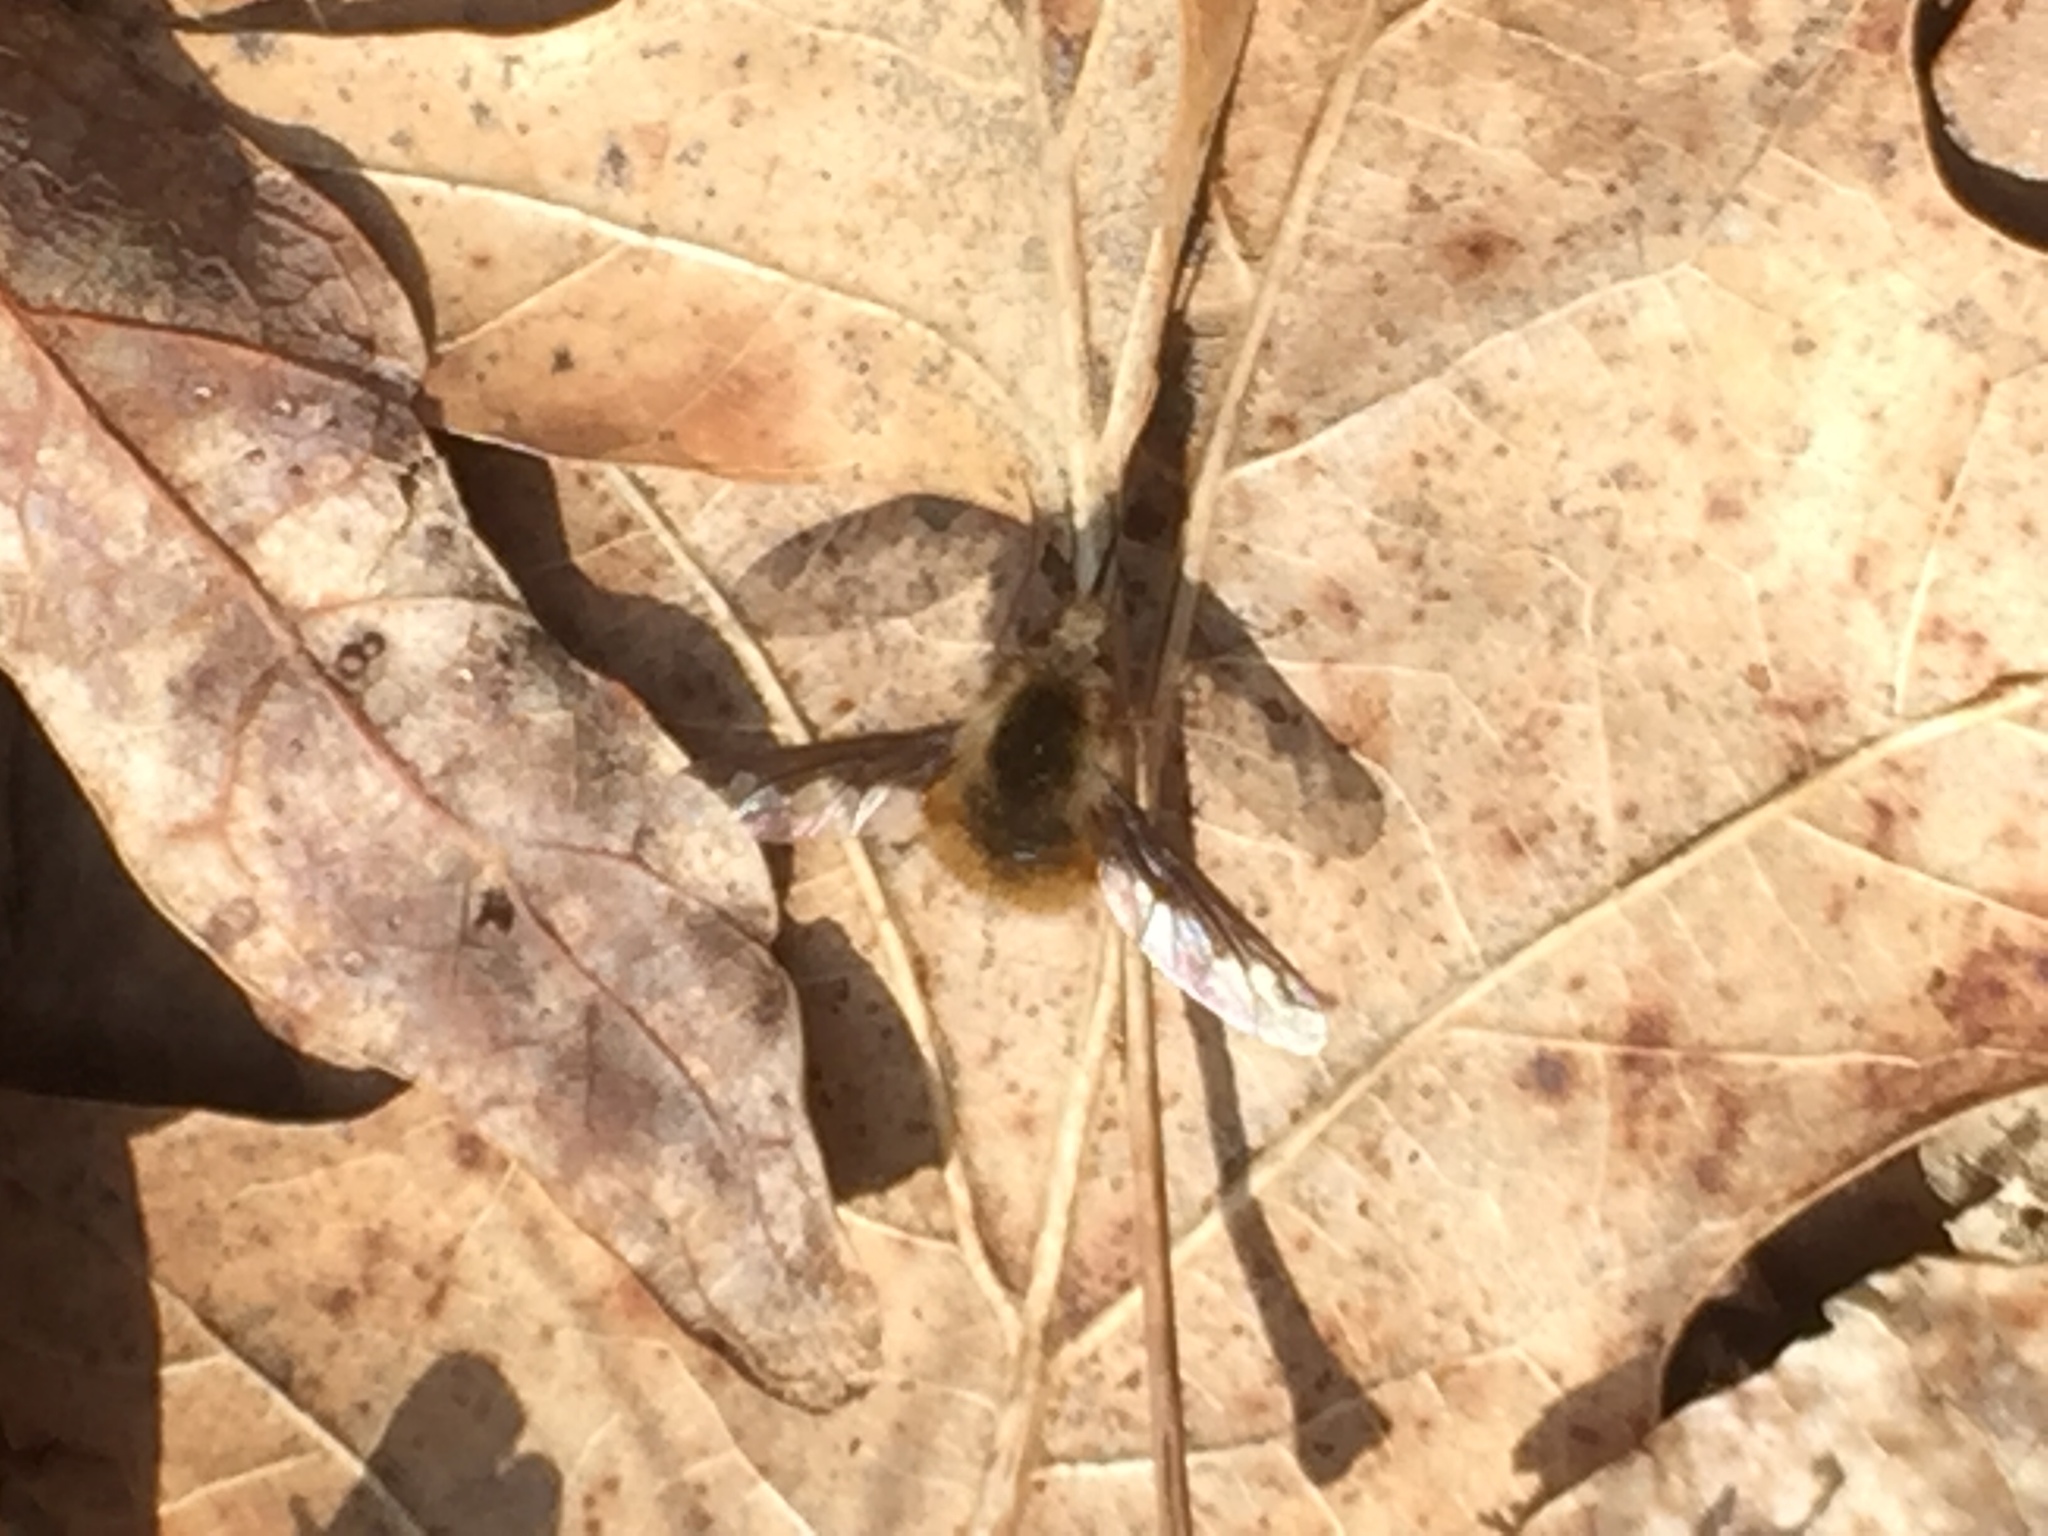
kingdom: Animalia
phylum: Arthropoda
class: Insecta
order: Diptera
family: Bombyliidae
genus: Bombylius
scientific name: Bombylius major
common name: Bee fly
